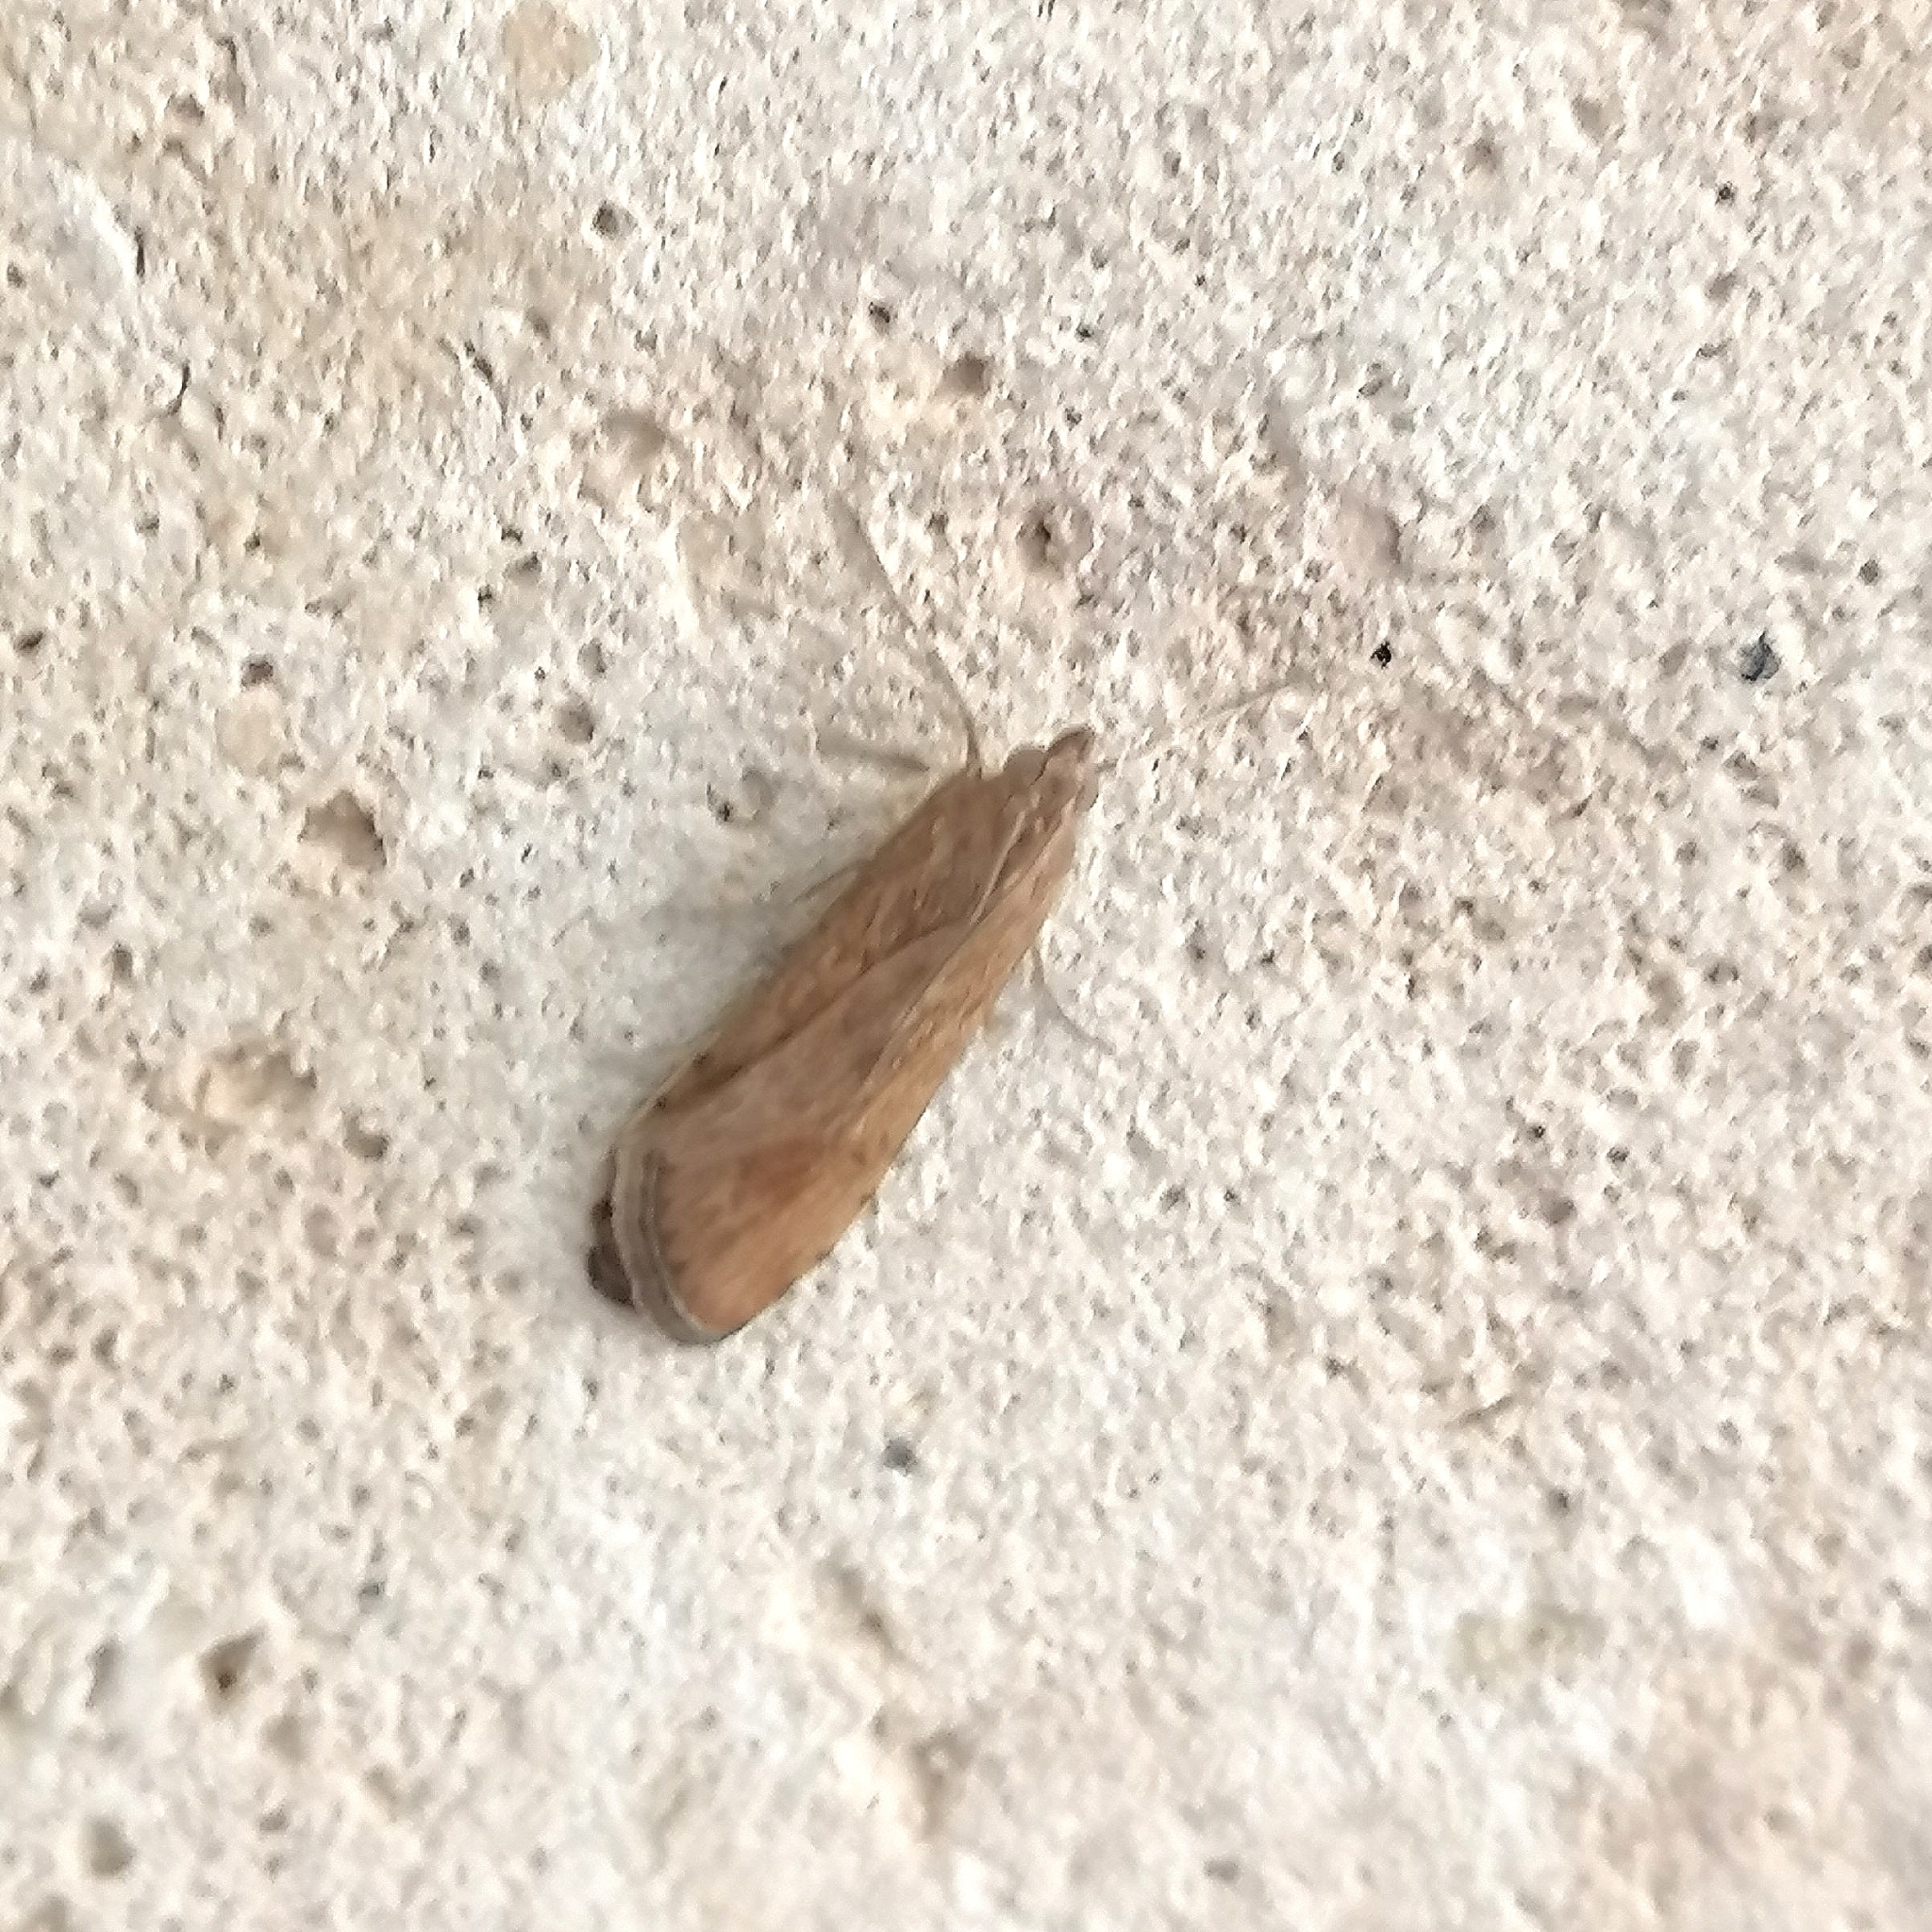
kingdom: Animalia
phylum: Arthropoda
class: Insecta
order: Lepidoptera
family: Crambidae
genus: Nomophila
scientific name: Nomophila noctuella
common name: Rush veneer
